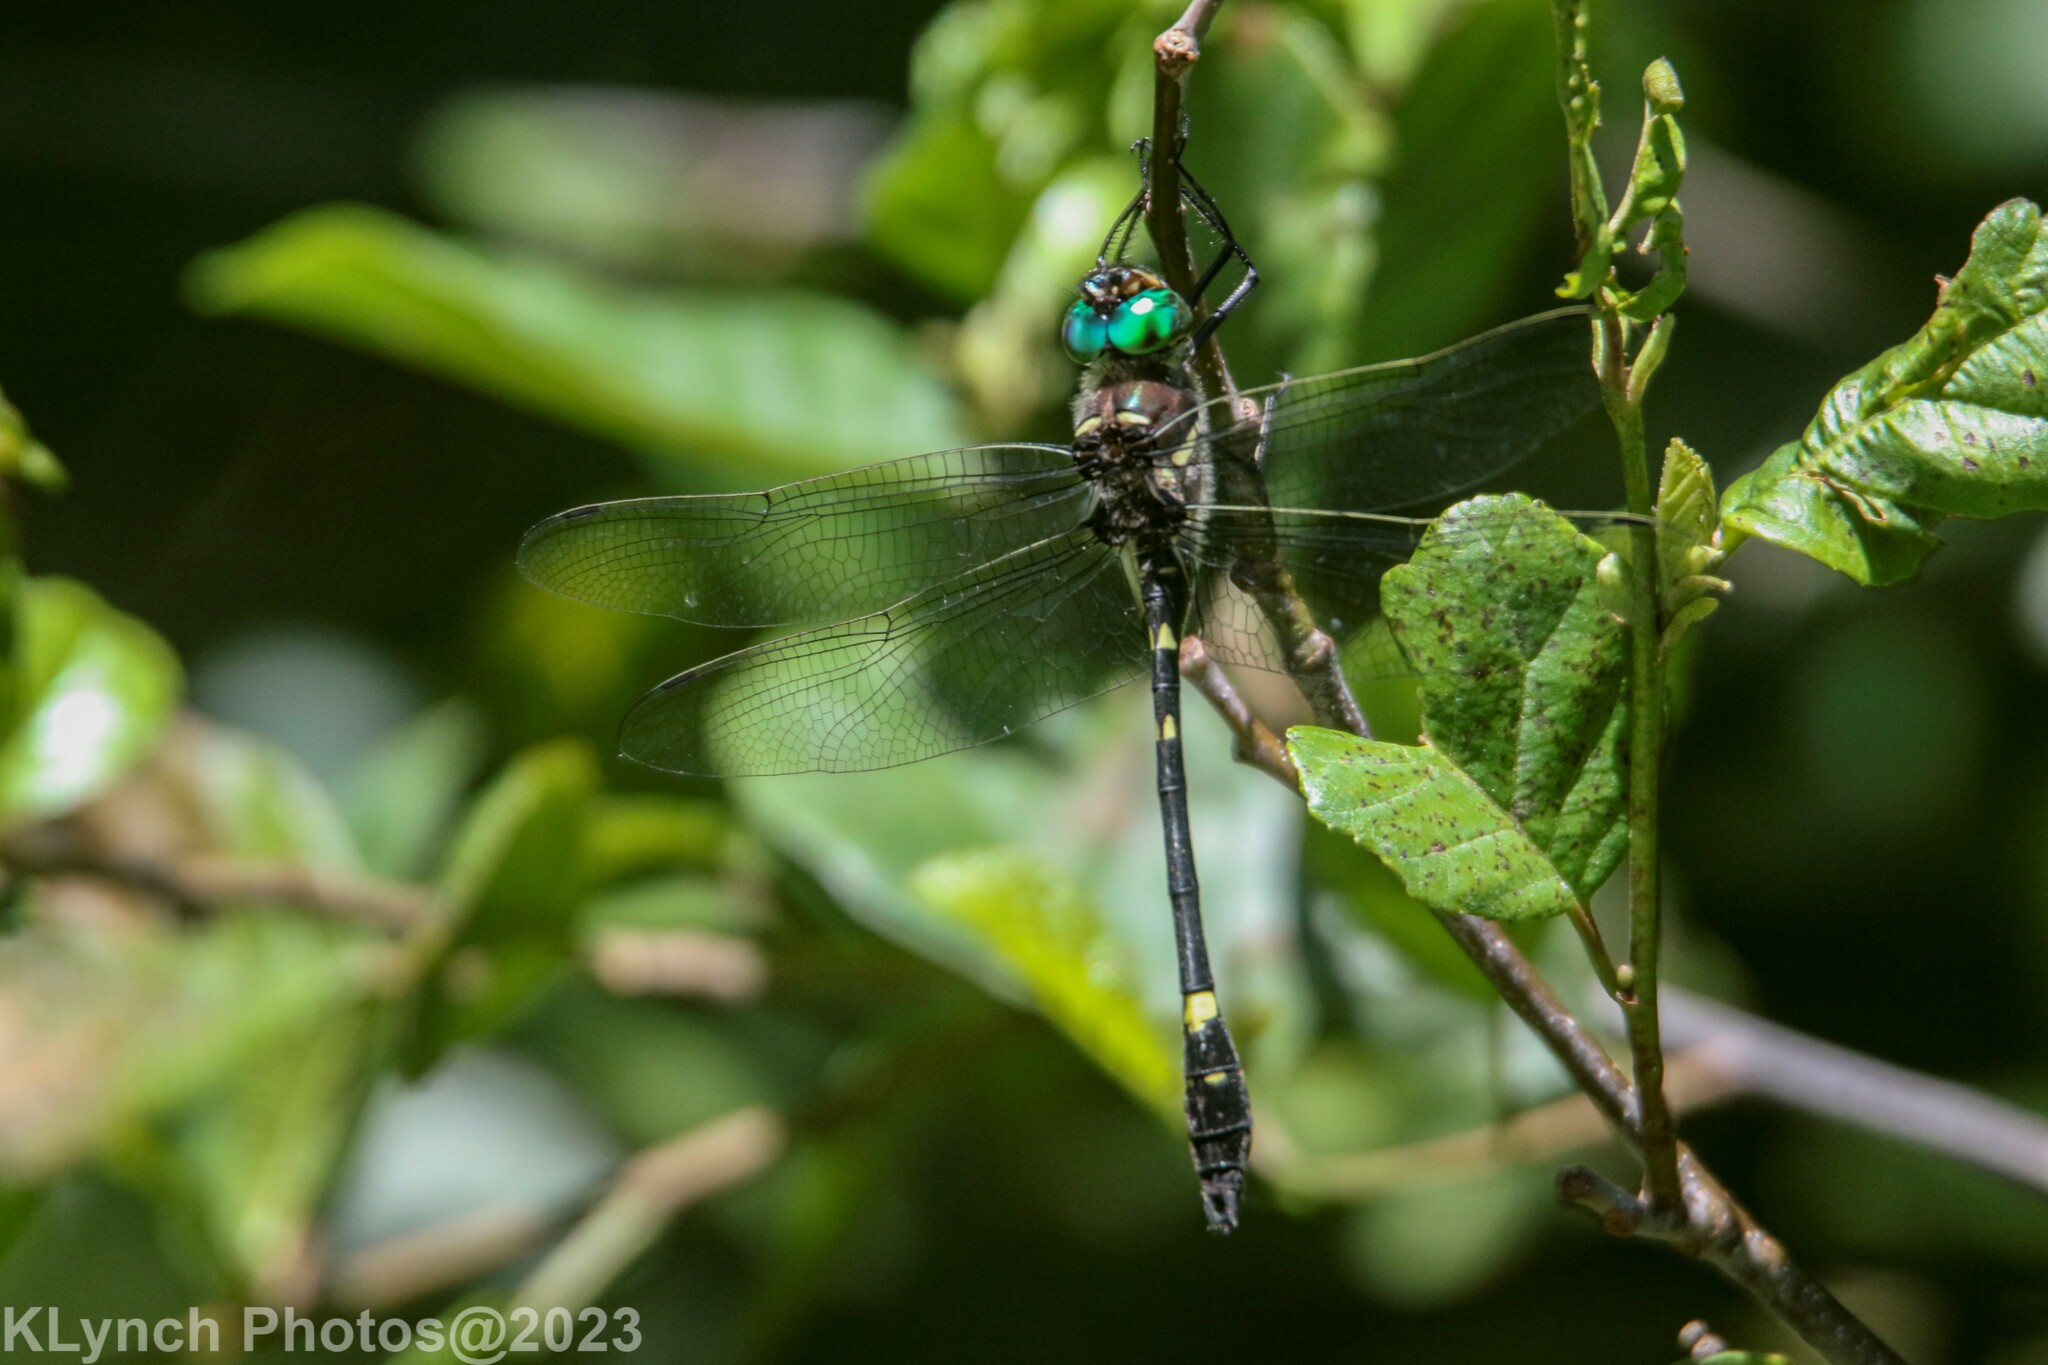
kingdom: Animalia
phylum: Arthropoda
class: Insecta
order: Odonata
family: Macromiidae
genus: Macromia
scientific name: Macromia illinoiensis
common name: Swift river cruiser
